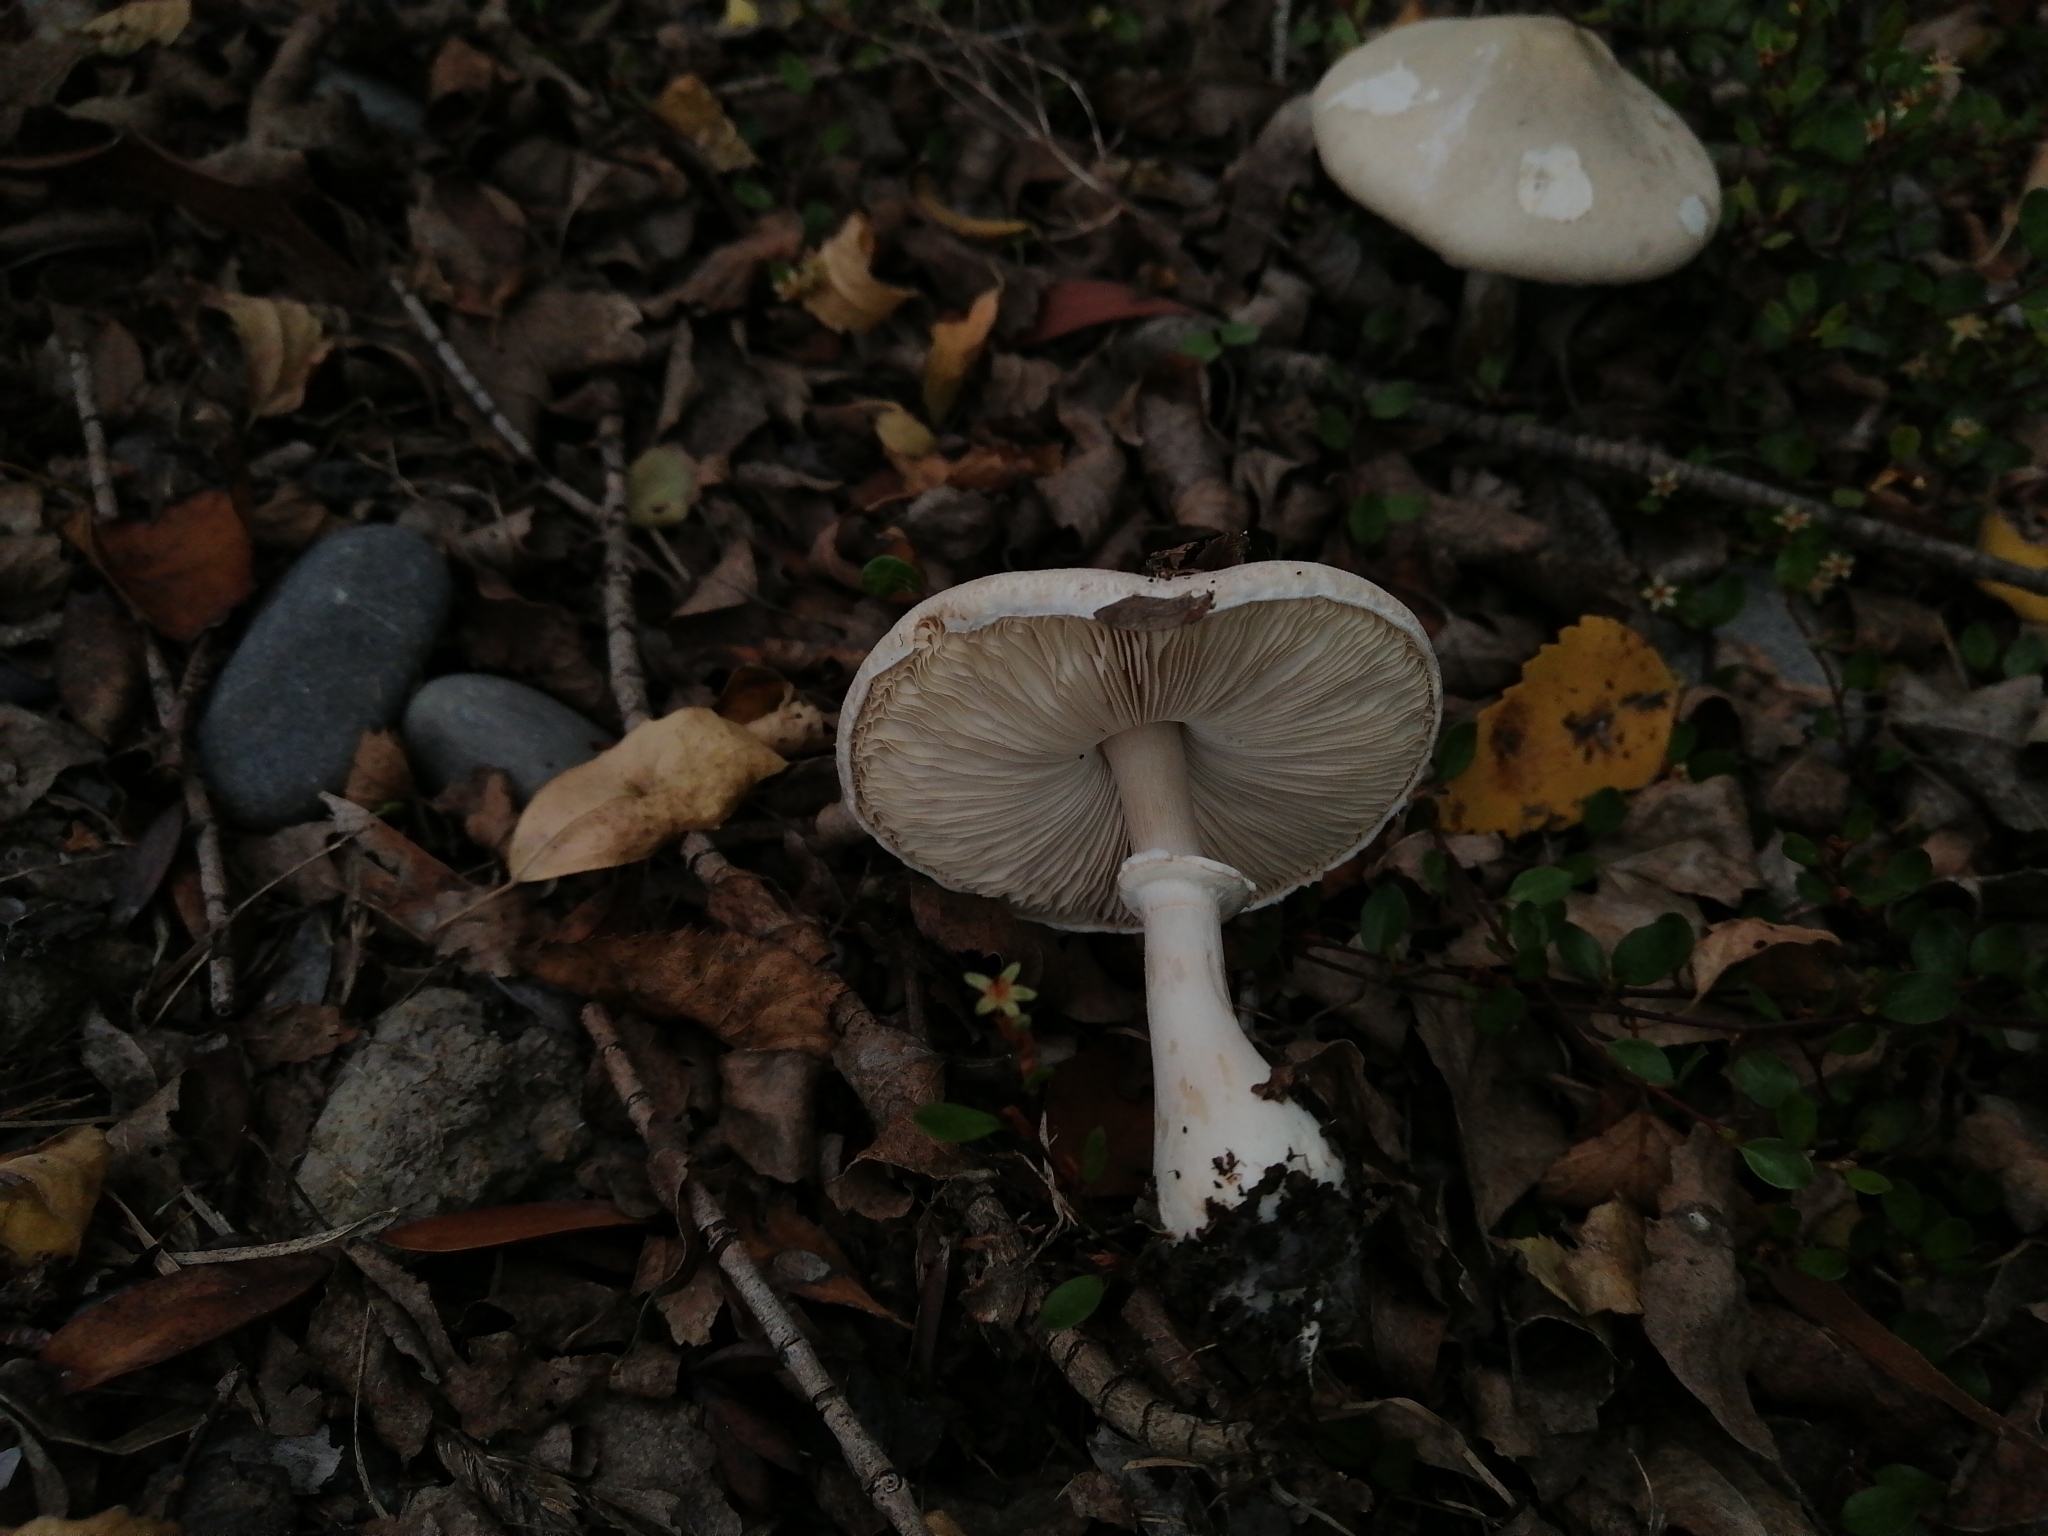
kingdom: Fungi
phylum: Basidiomycota
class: Agaricomycetes
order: Agaricales
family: Agaricaceae
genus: Leucoagaricus
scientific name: Leucoagaricus leucothites
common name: White dapperling
